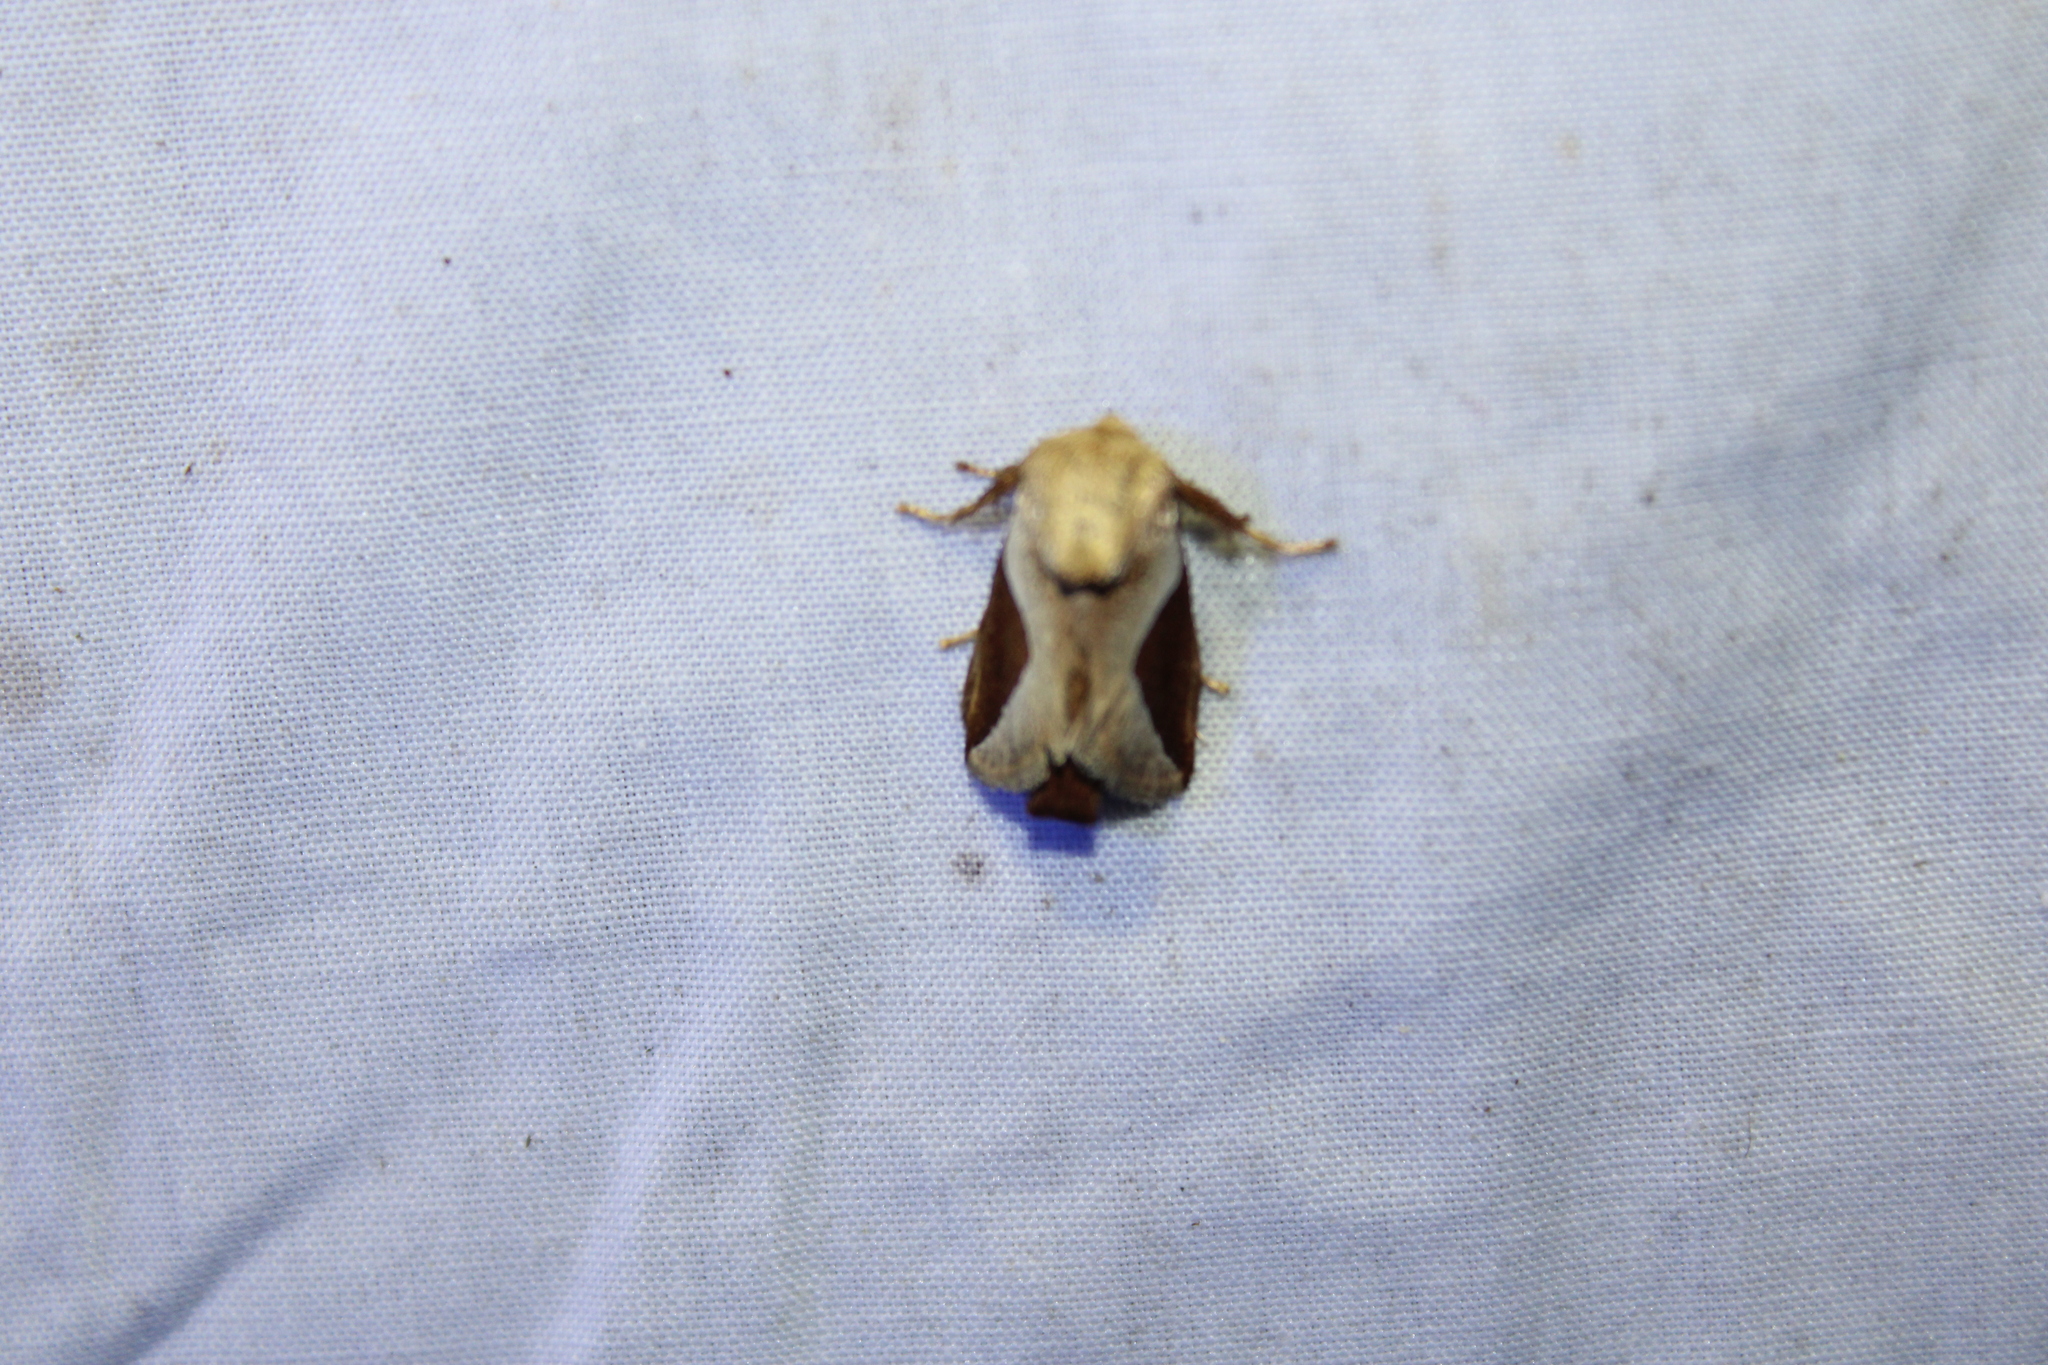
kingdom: Animalia
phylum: Arthropoda
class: Insecta
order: Lepidoptera
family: Limacodidae
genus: Prolimacodes
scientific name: Prolimacodes badia
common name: Skiff moth
